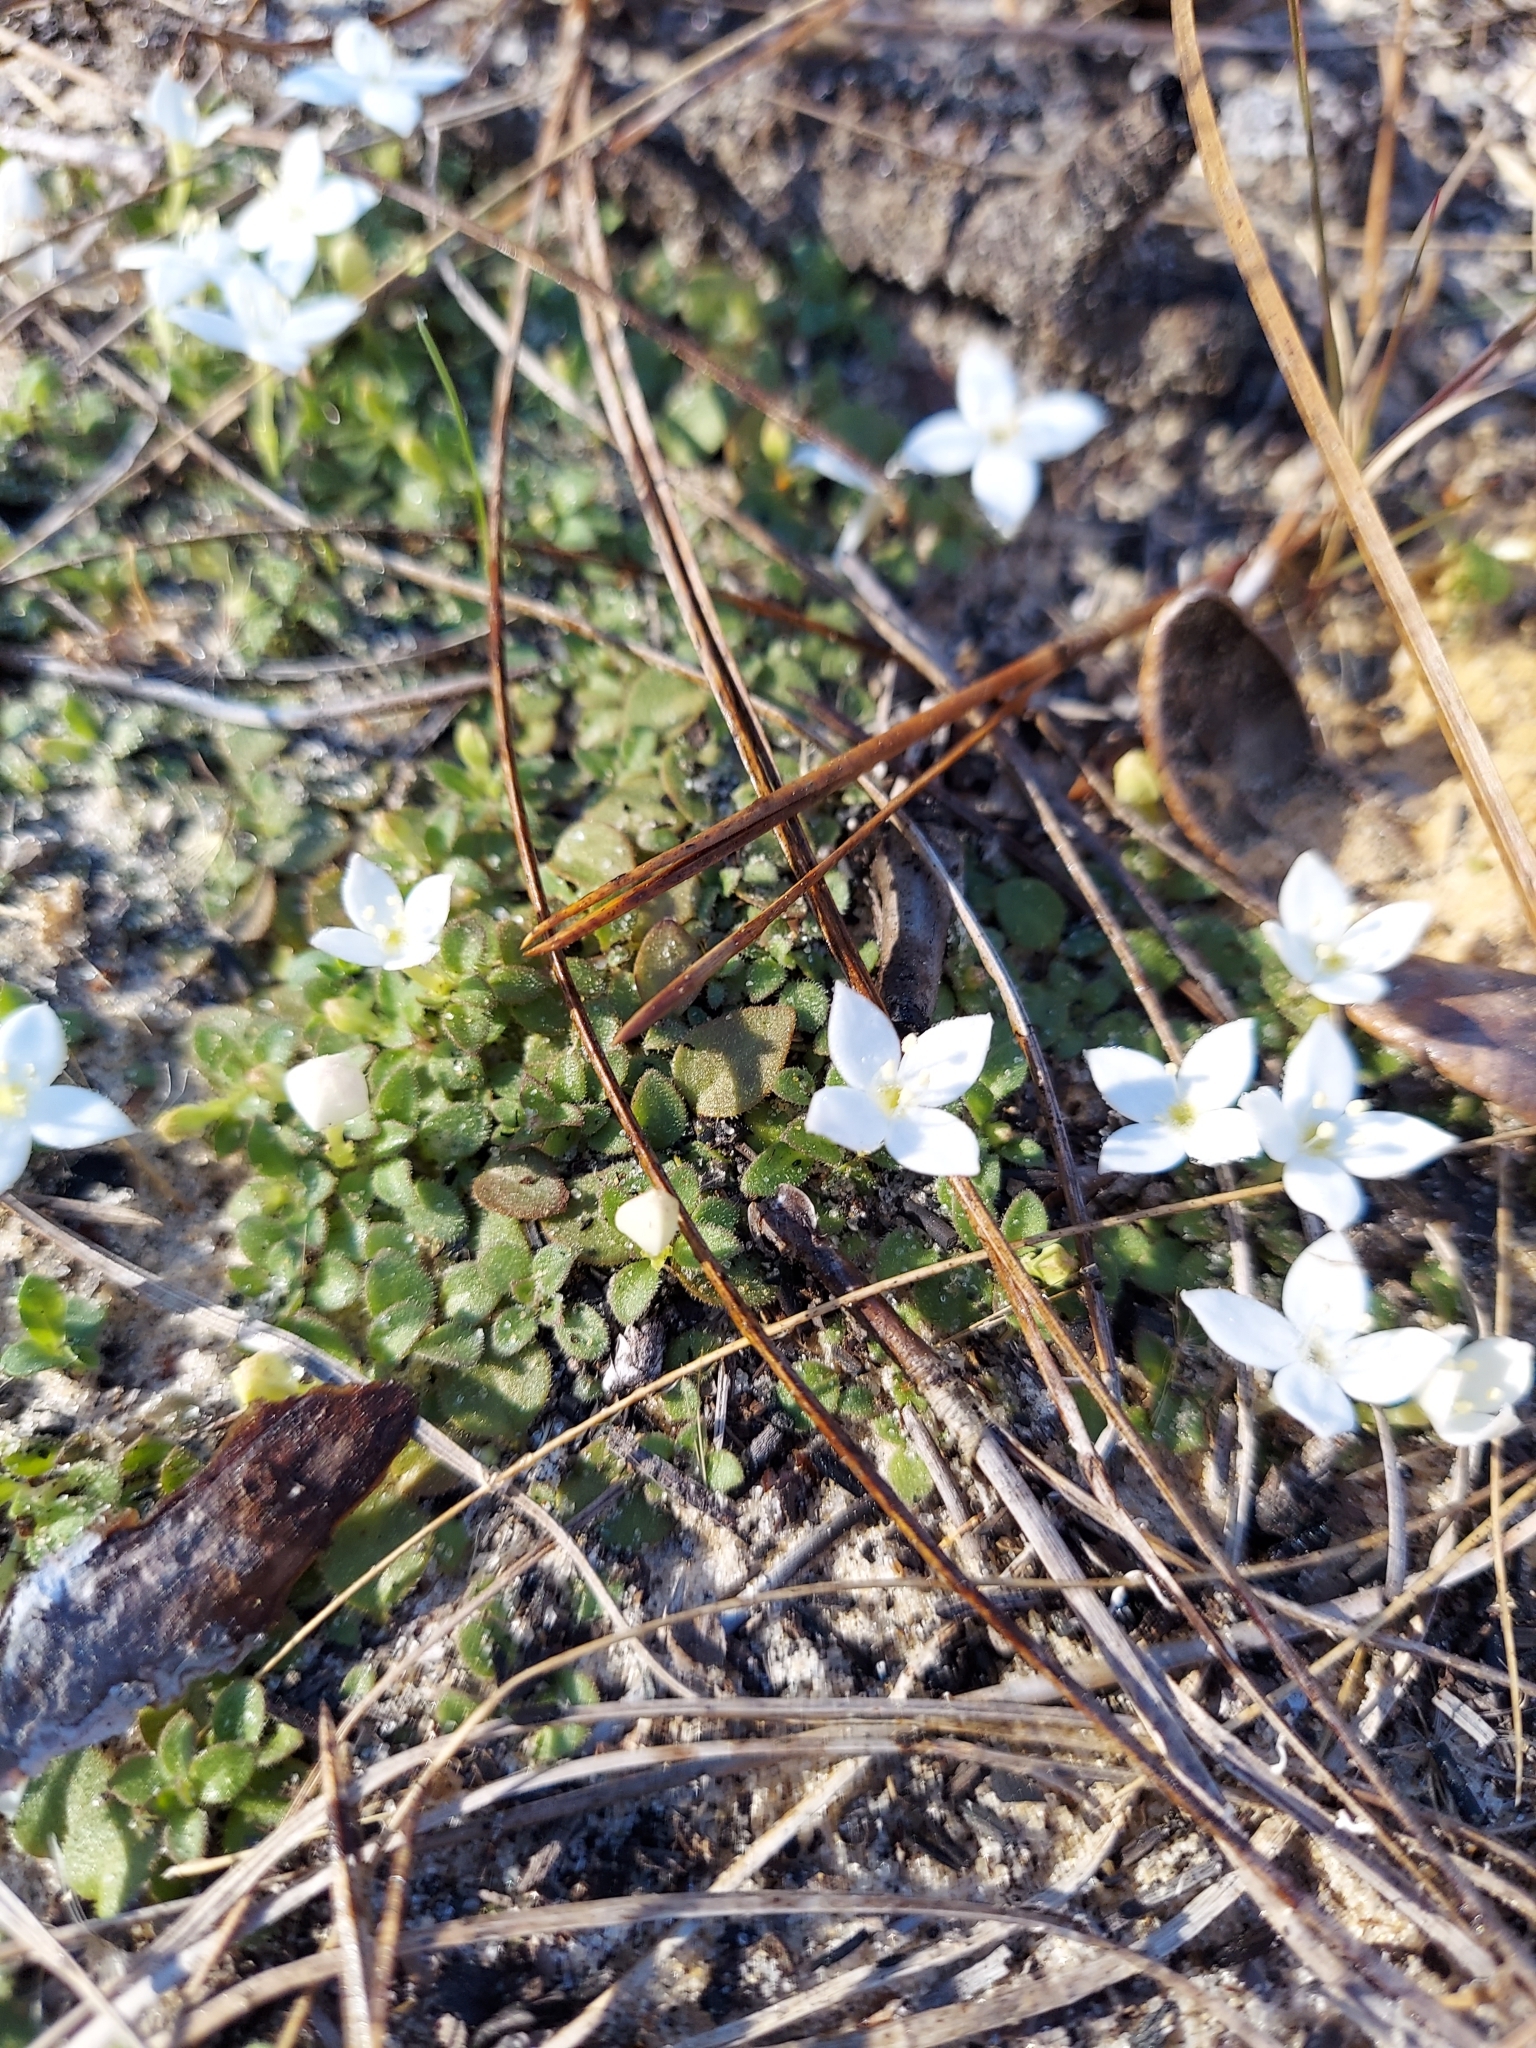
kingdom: Plantae
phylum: Tracheophyta
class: Magnoliopsida
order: Gentianales
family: Rubiaceae
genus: Houstonia
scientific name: Houstonia procumbens
